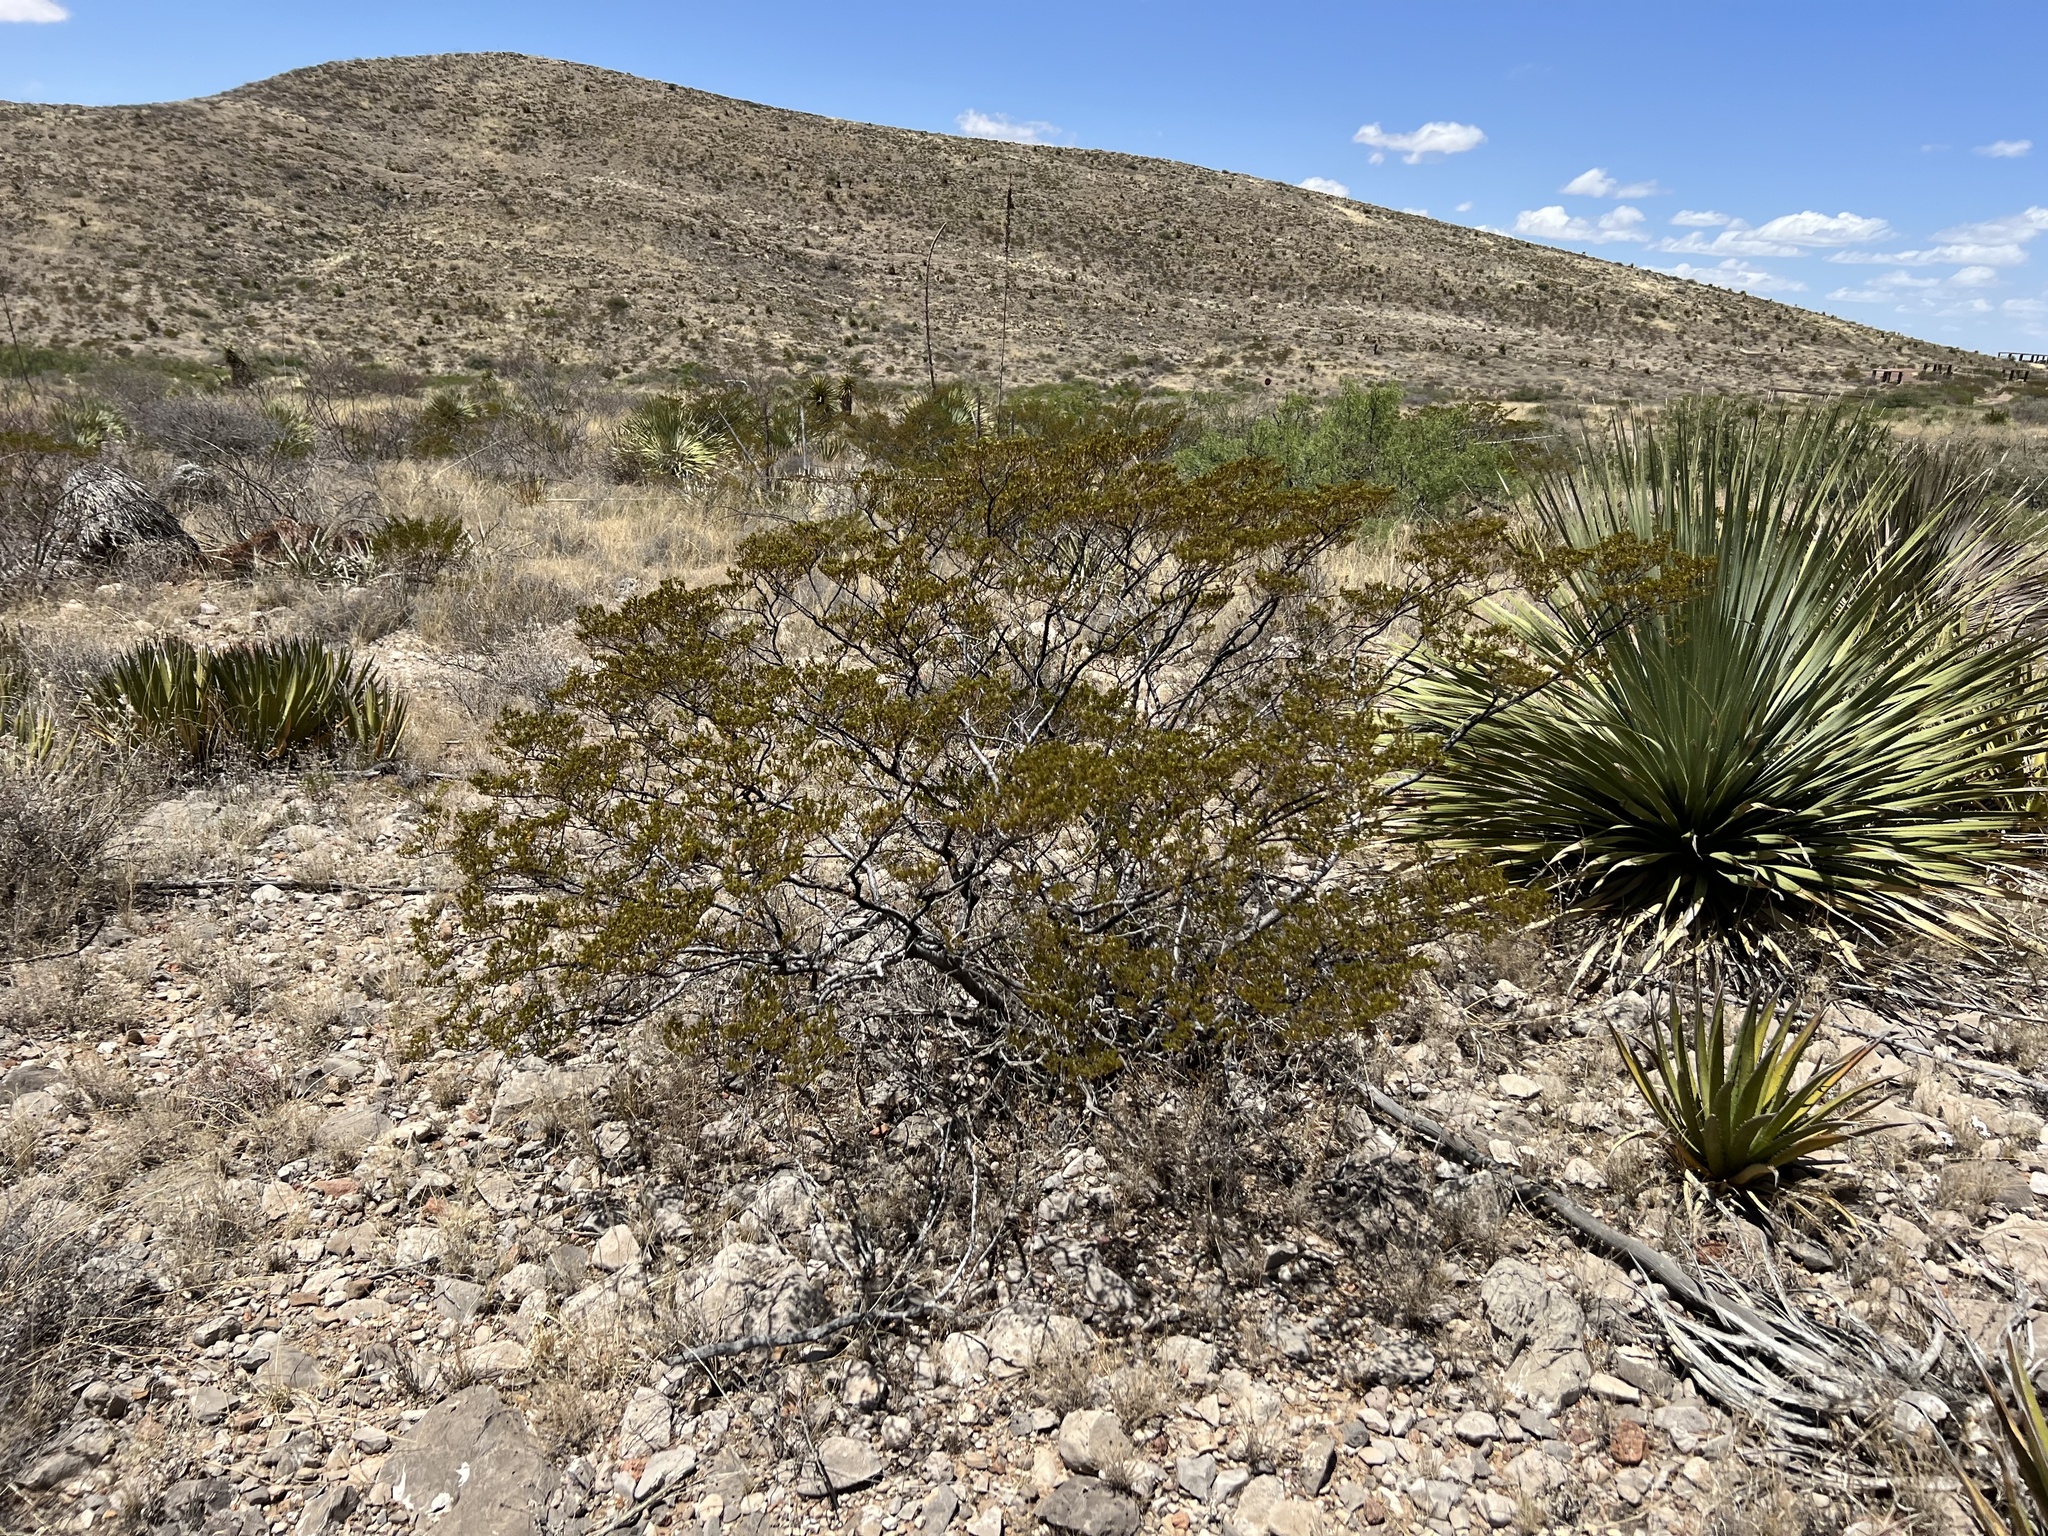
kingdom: Plantae
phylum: Tracheophyta
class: Magnoliopsida
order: Zygophyllales
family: Zygophyllaceae
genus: Larrea
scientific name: Larrea tridentata
